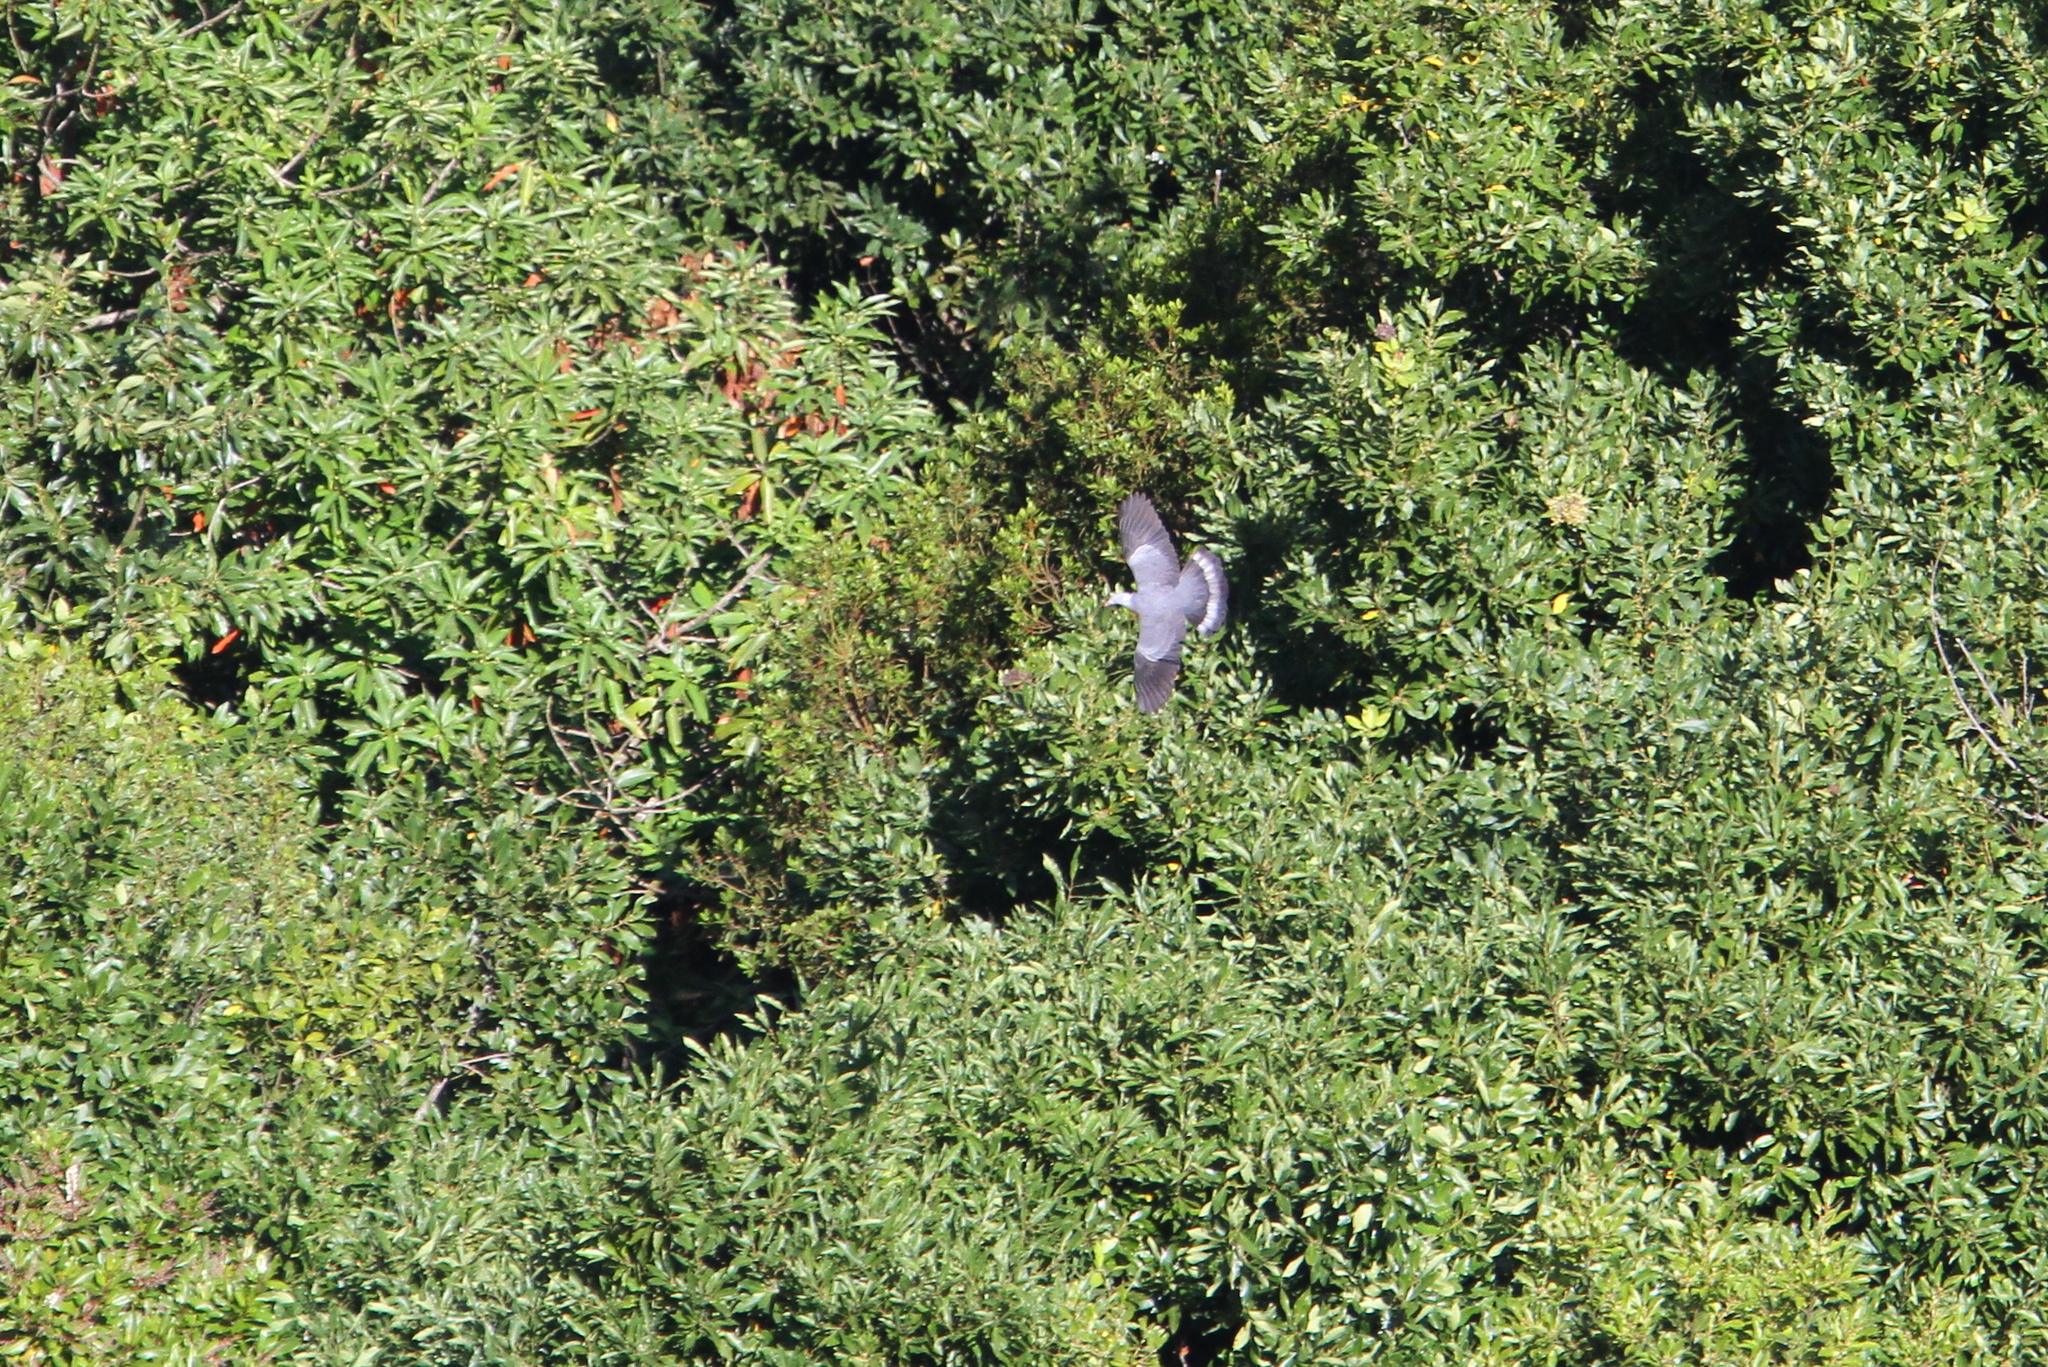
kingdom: Animalia
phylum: Chordata
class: Aves
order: Columbiformes
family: Columbidae
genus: Columba
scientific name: Columba trocaz
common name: Trocaz pigeon
